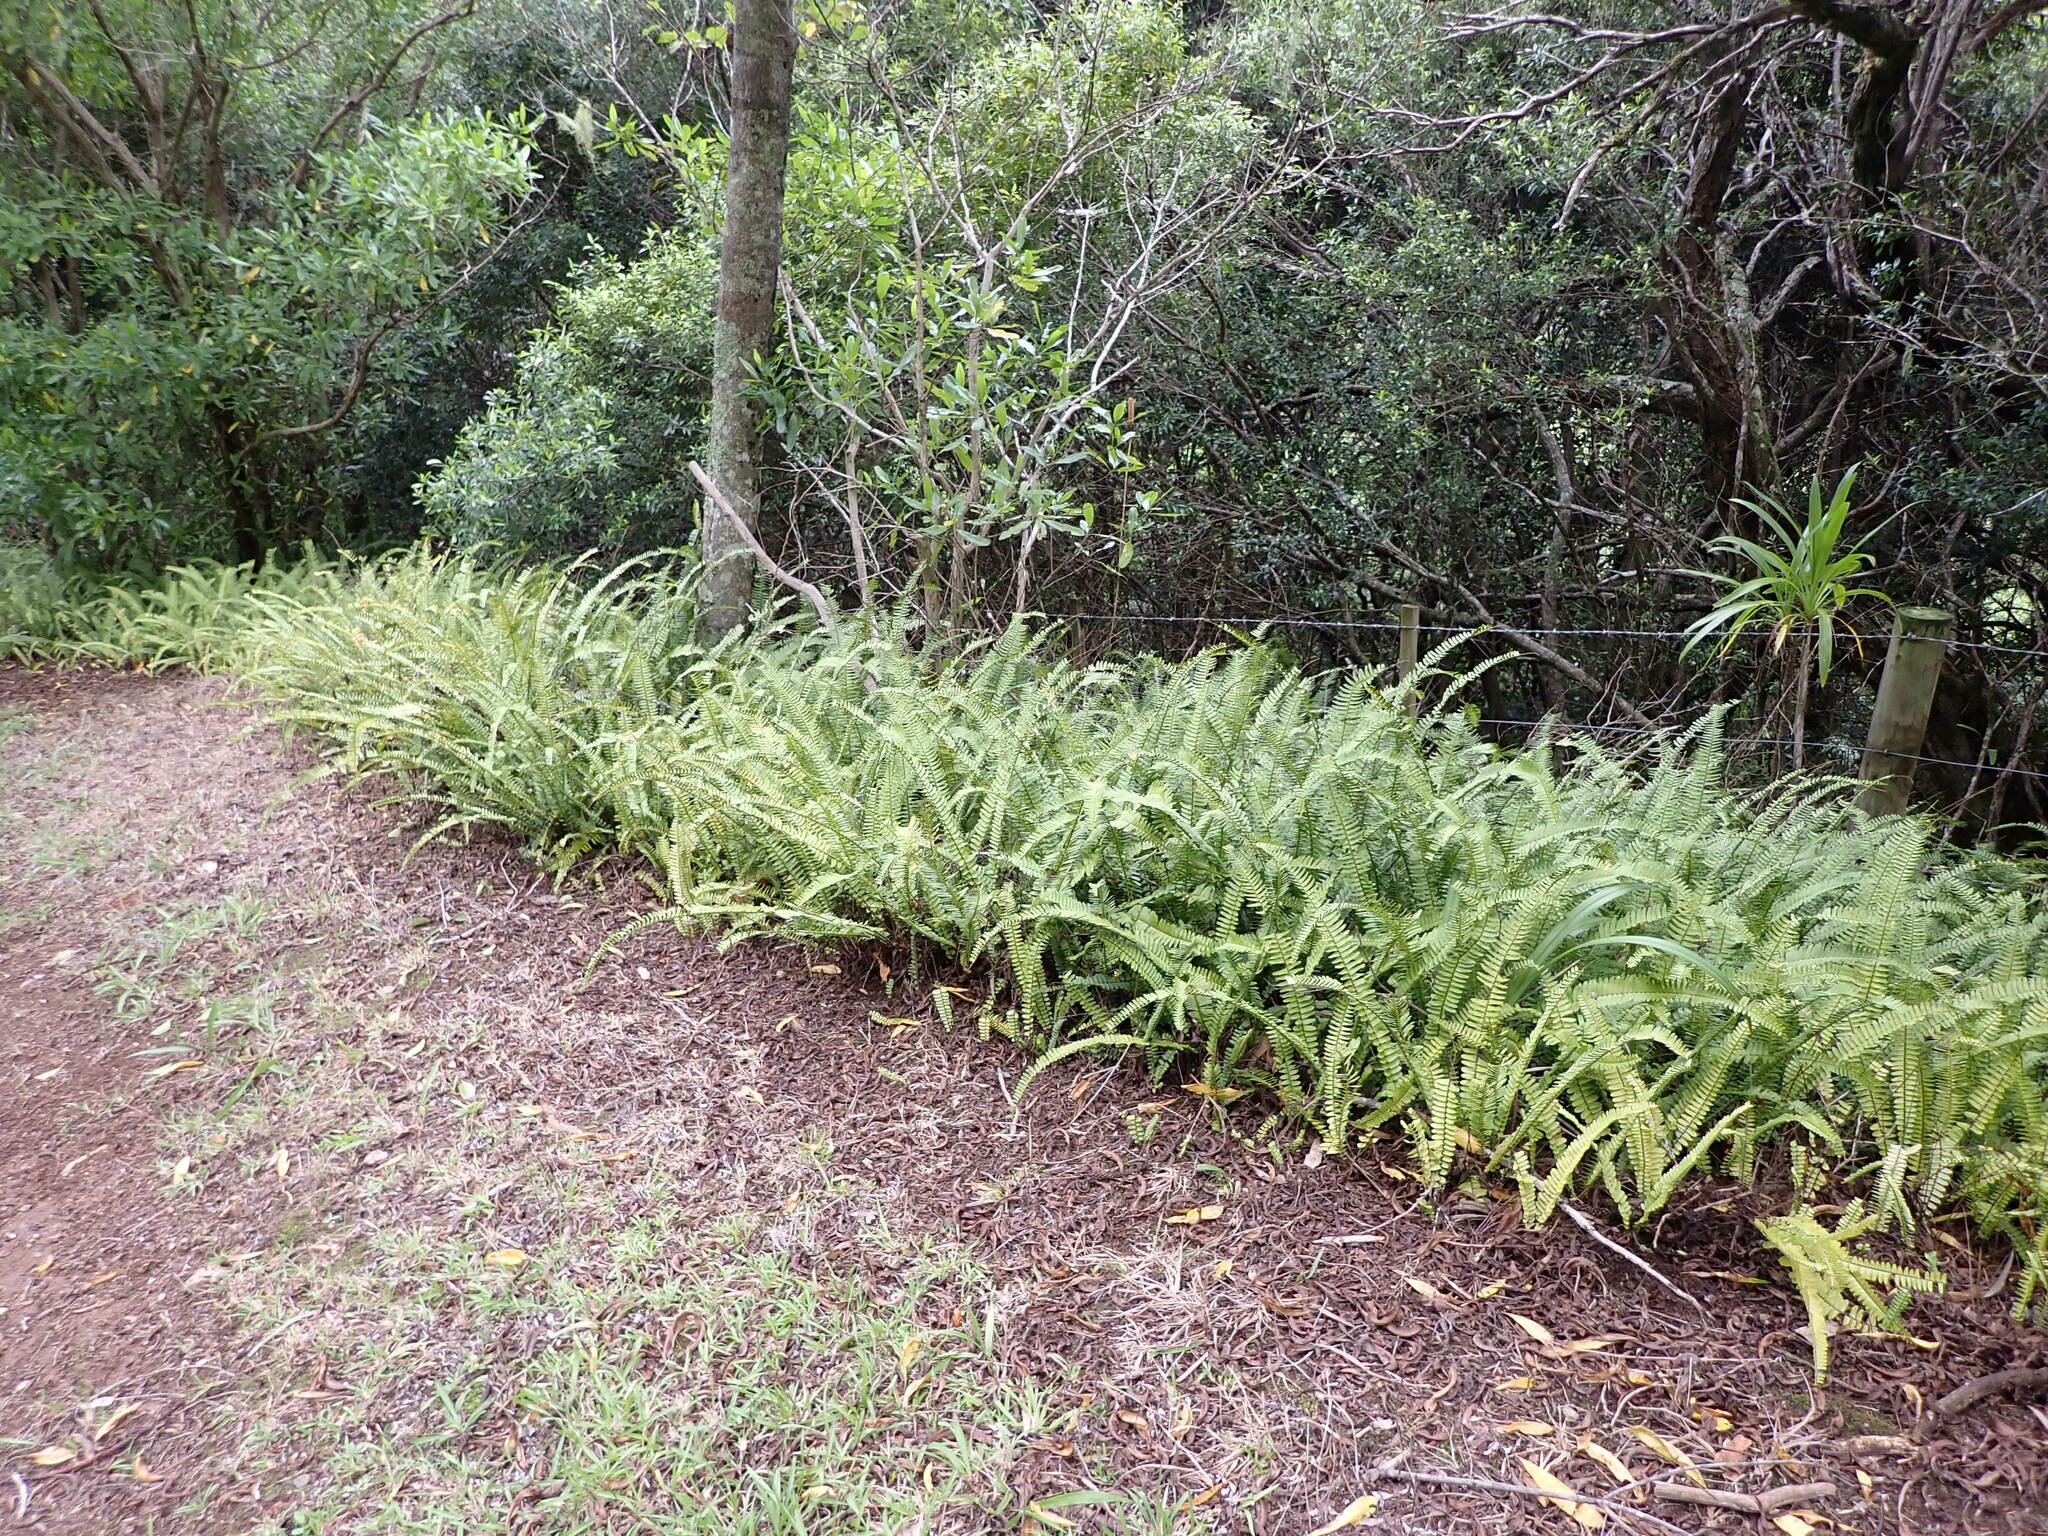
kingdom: Plantae
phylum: Tracheophyta
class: Polypodiopsida
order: Polypodiales
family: Nephrolepidaceae
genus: Nephrolepis
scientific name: Nephrolepis cordifolia
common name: Narrow swordfern
